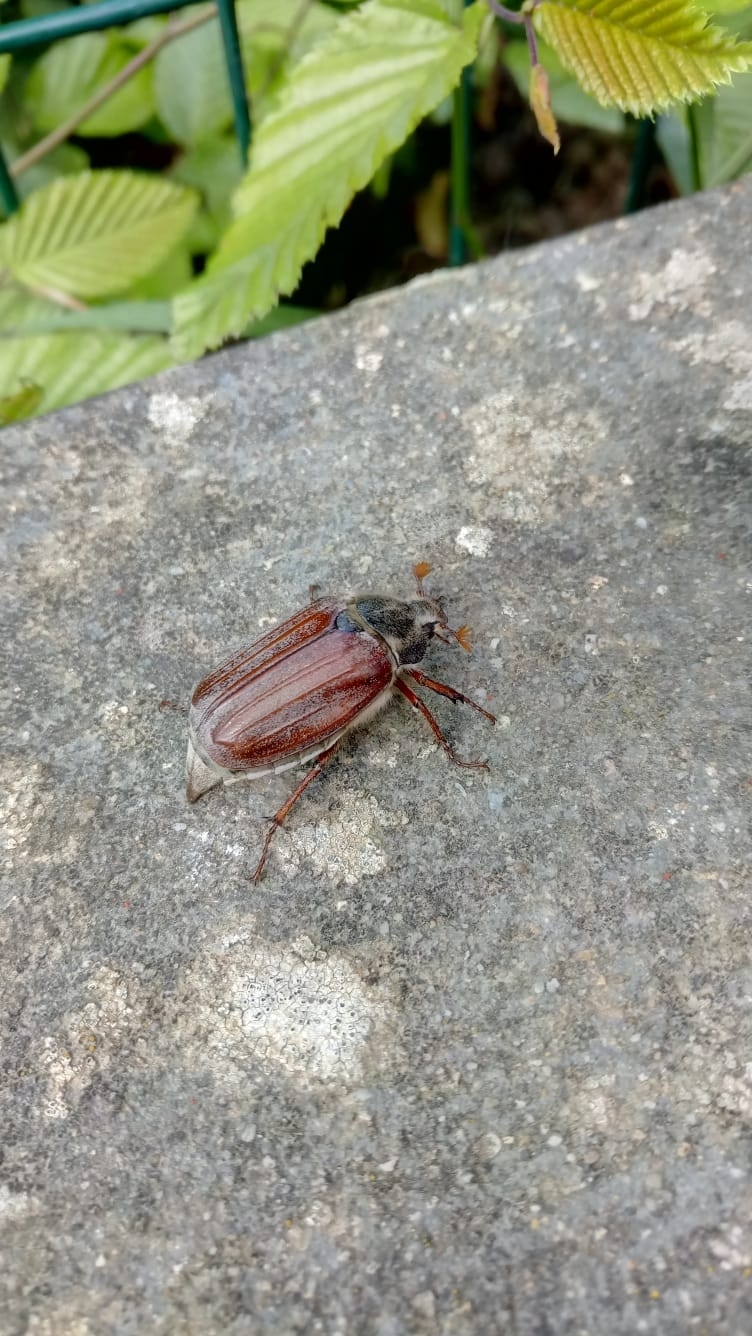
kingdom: Animalia
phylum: Arthropoda
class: Insecta
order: Coleoptera
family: Scarabaeidae
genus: Melolontha
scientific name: Melolontha melolontha
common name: Cockchafer maybeetle
